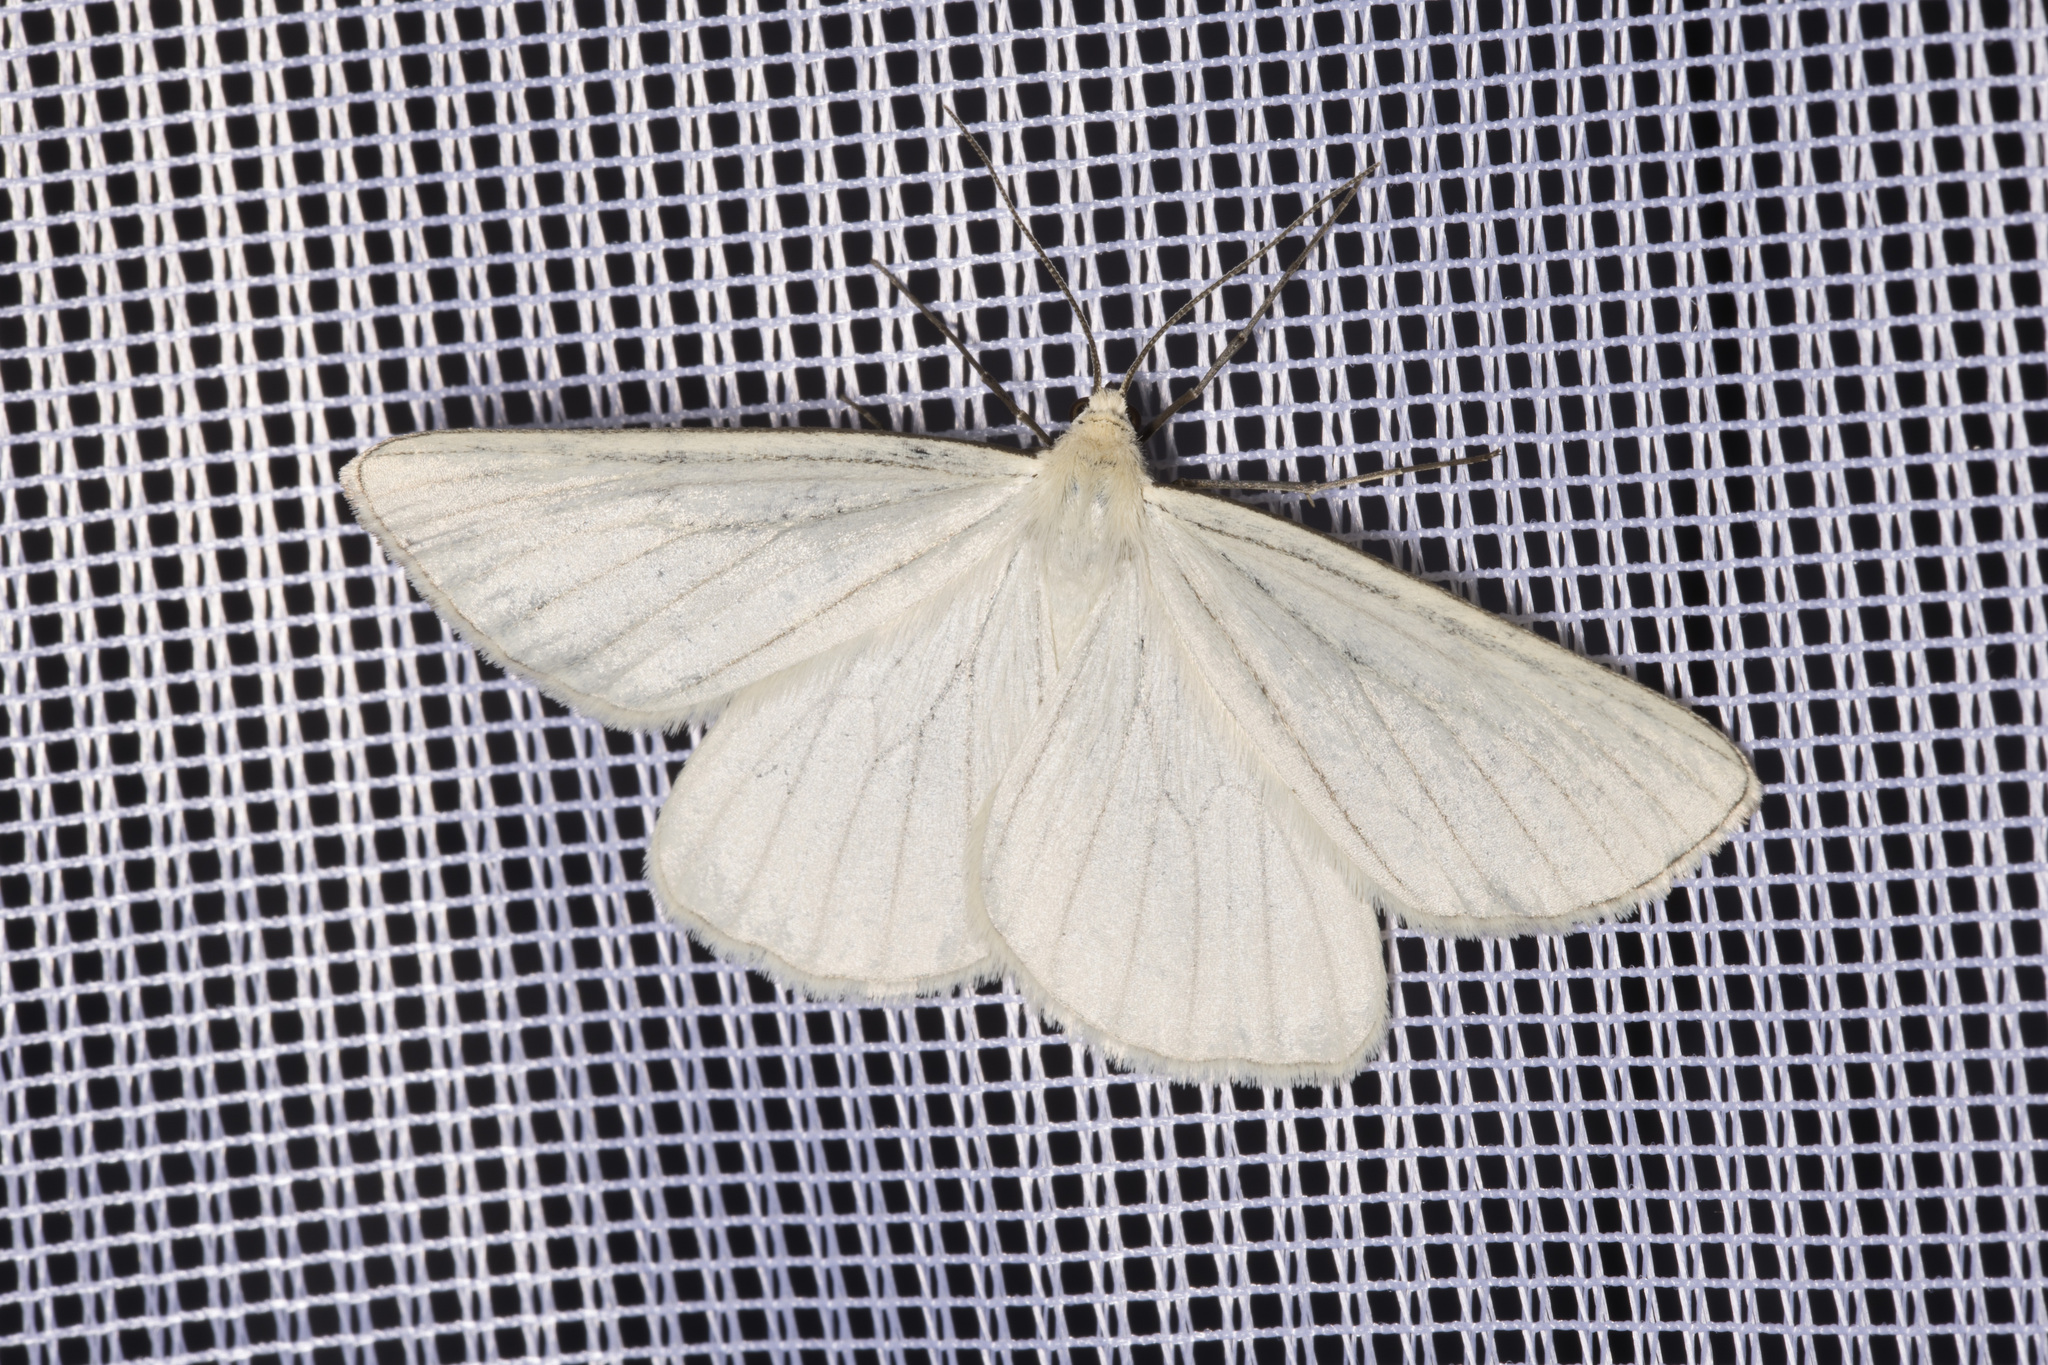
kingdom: Animalia
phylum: Arthropoda
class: Insecta
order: Lepidoptera
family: Geometridae
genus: Siona
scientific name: Siona lineata
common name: Black-veined moth
